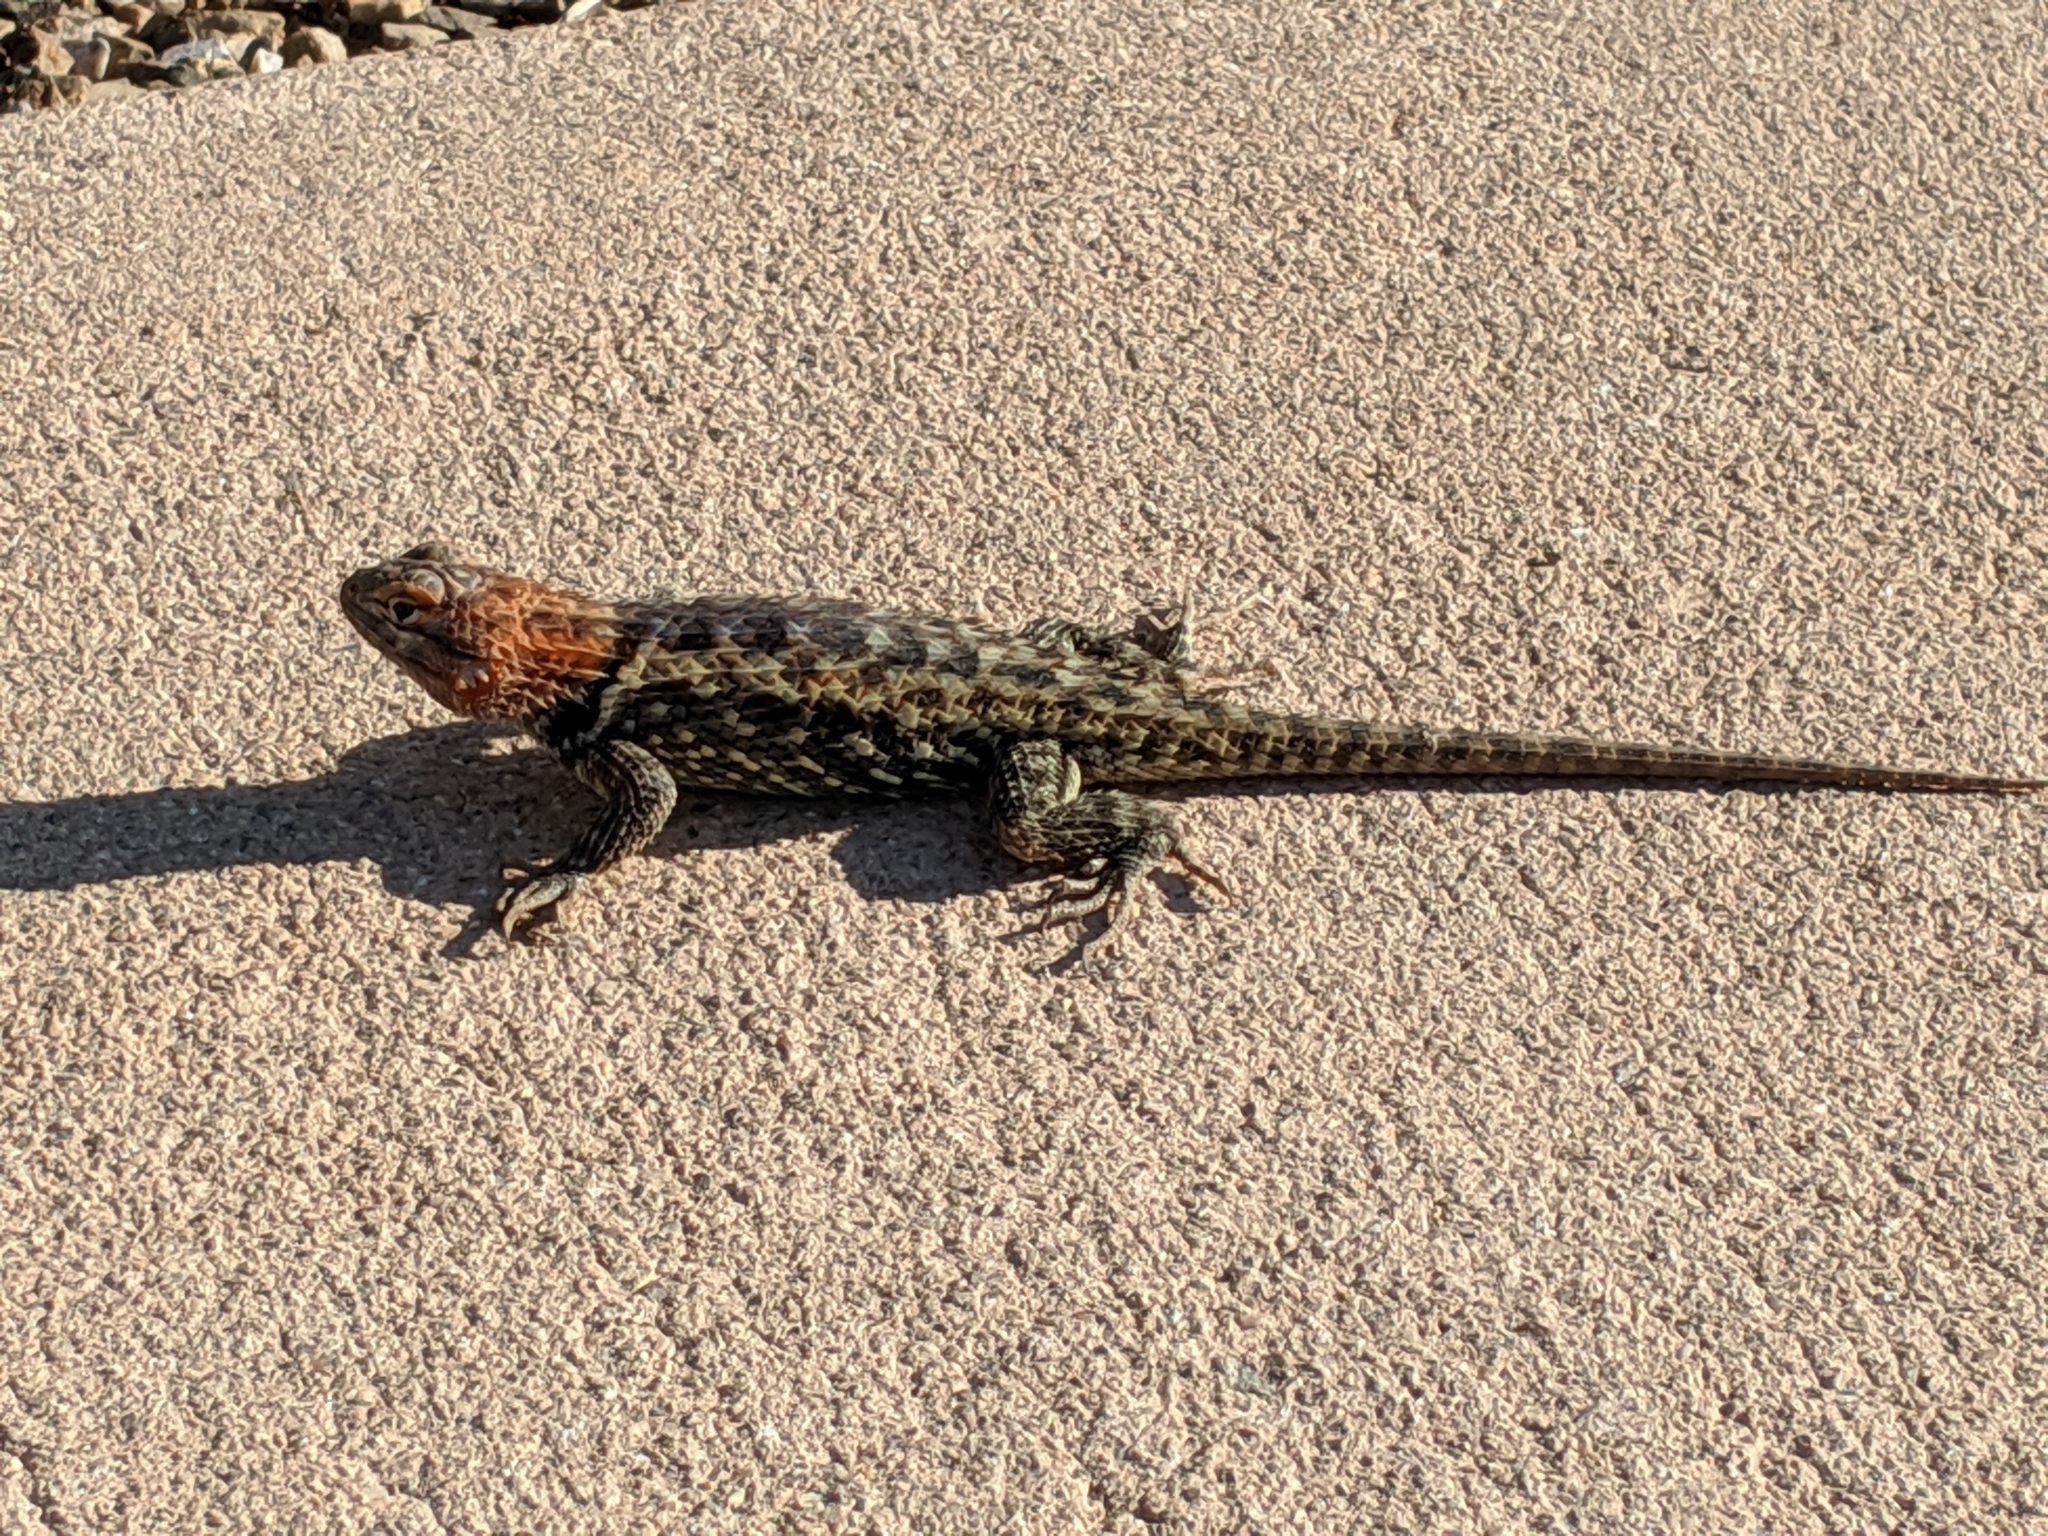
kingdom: Animalia
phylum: Chordata
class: Squamata
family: Phrynosomatidae
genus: Sceloporus
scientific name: Sceloporus magister
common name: Desert spiny lizard
